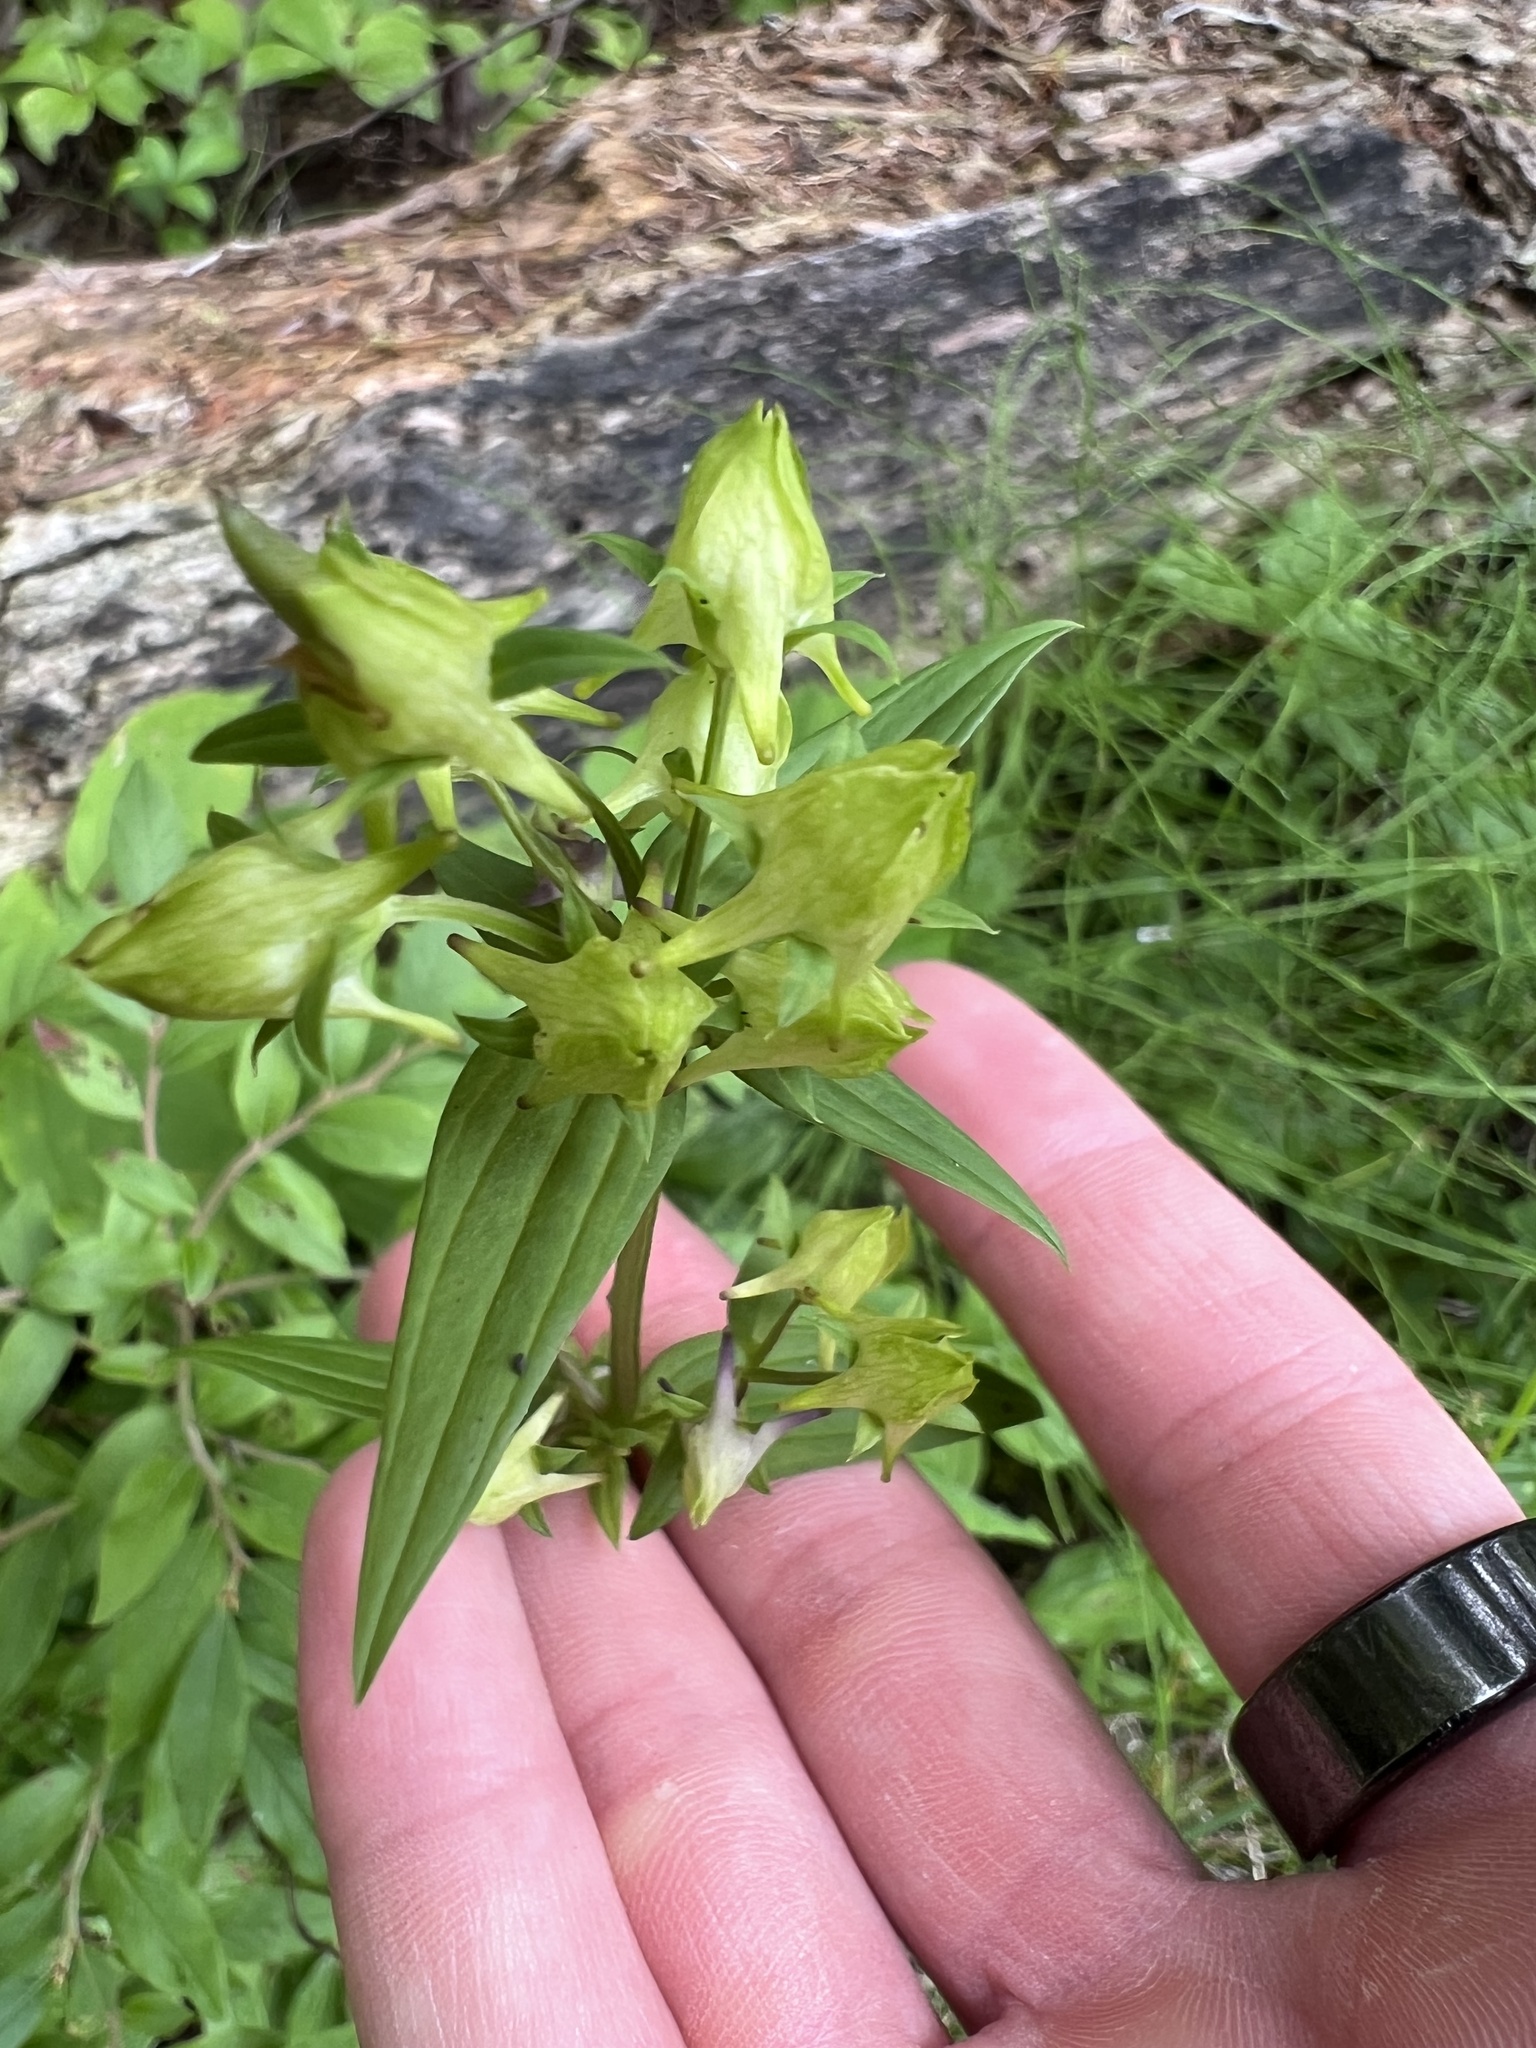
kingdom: Plantae
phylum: Tracheophyta
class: Magnoliopsida
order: Gentianales
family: Gentianaceae
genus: Halenia
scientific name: Halenia deflexa
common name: American spurred gentian
